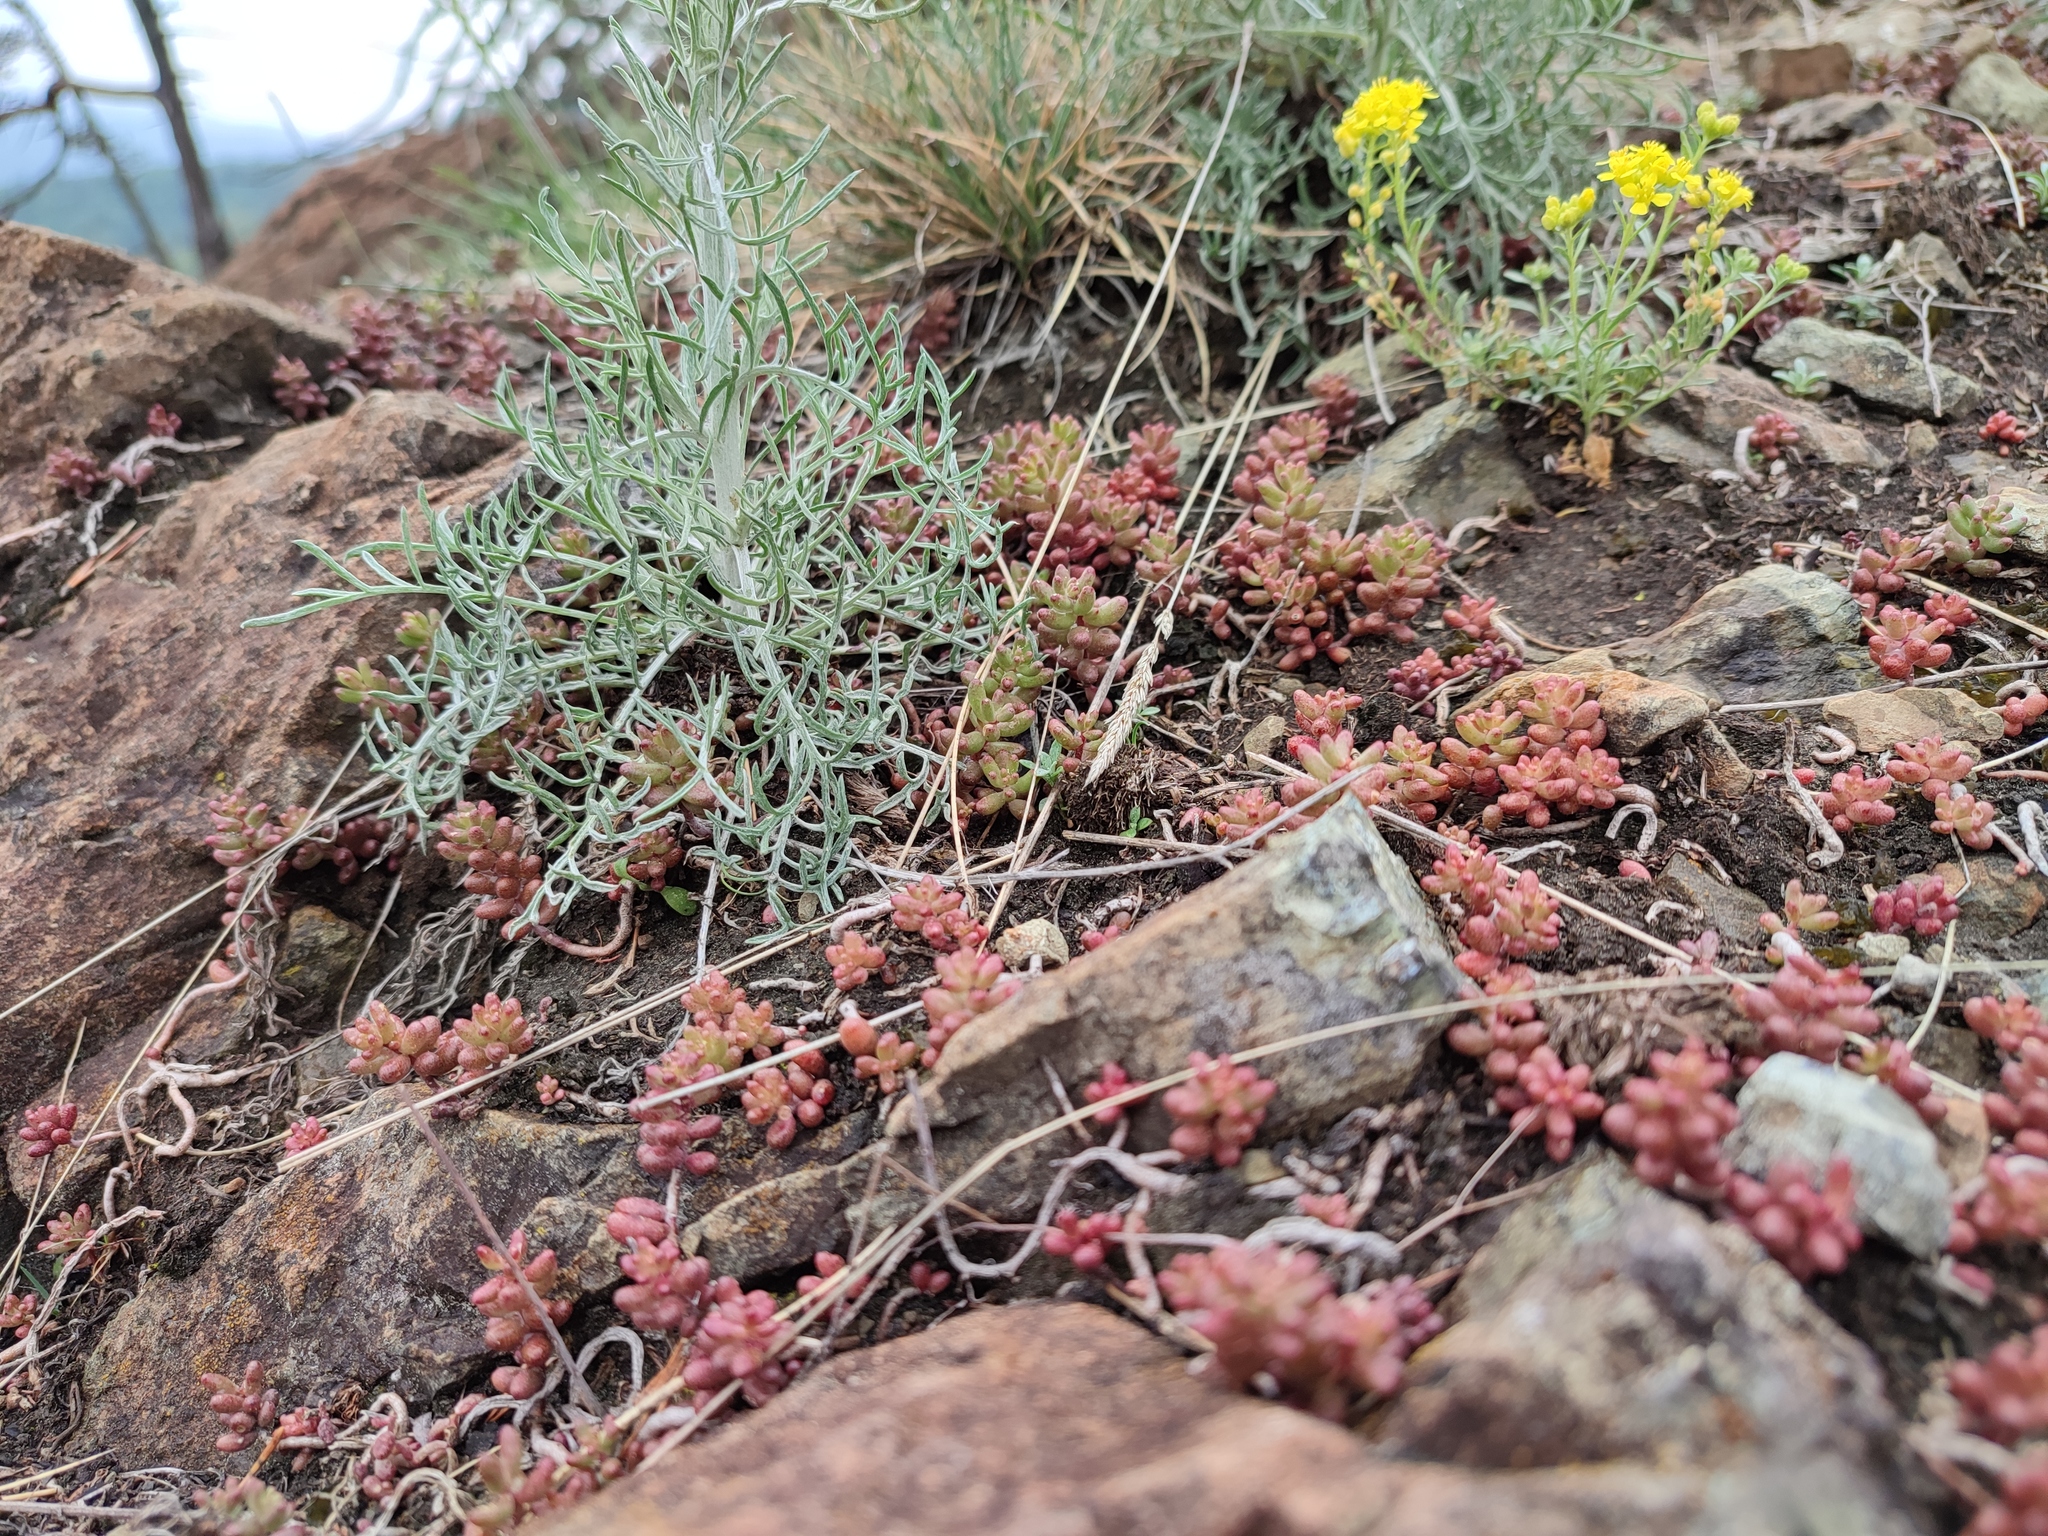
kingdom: Plantae
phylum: Tracheophyta
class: Magnoliopsida
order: Asterales
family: Asteraceae
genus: Centaurea
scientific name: Centaurea stoebe
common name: Spotted knapweed
